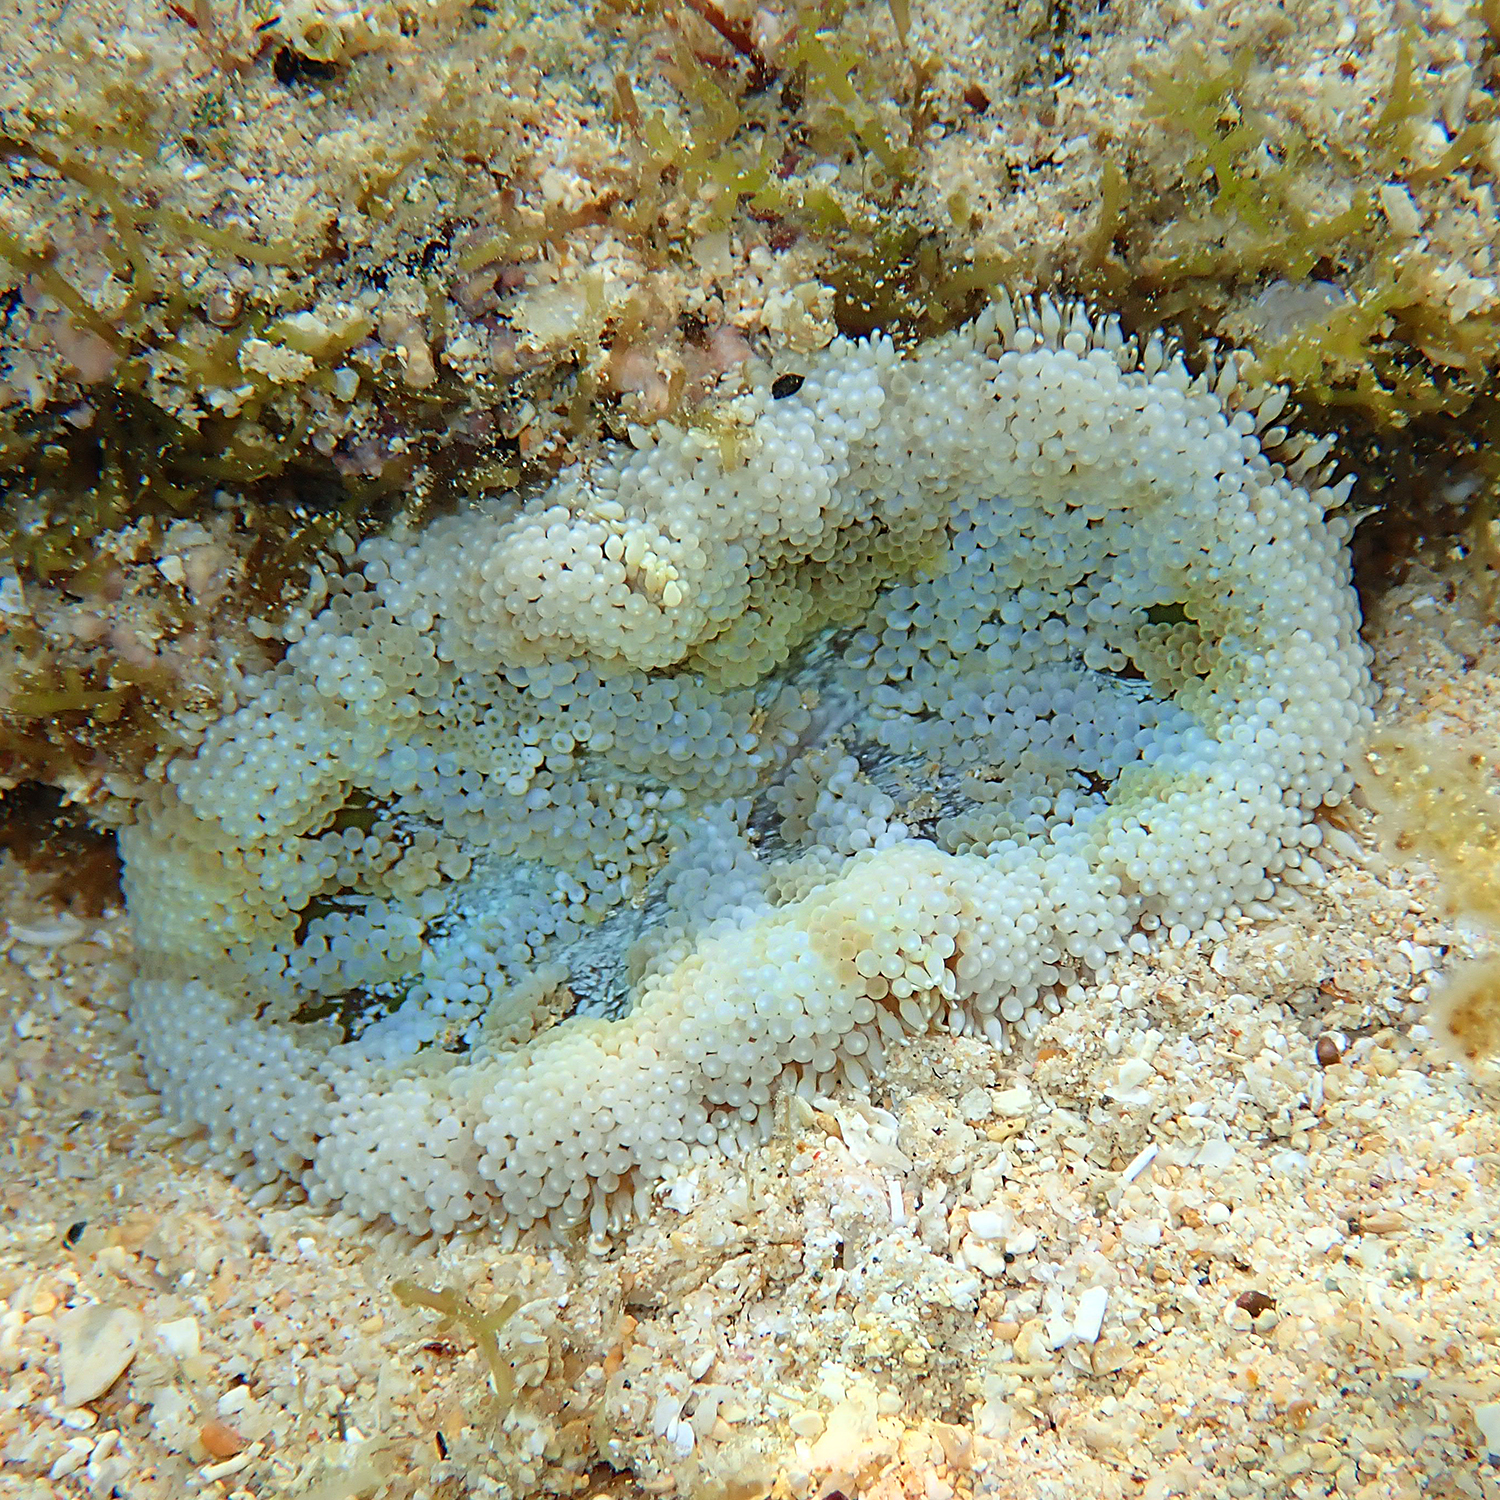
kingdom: Animalia
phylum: Cnidaria
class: Anthozoa
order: Actiniaria
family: Stichodactylidae
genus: Stichodactyla
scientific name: Stichodactyla tapetum
